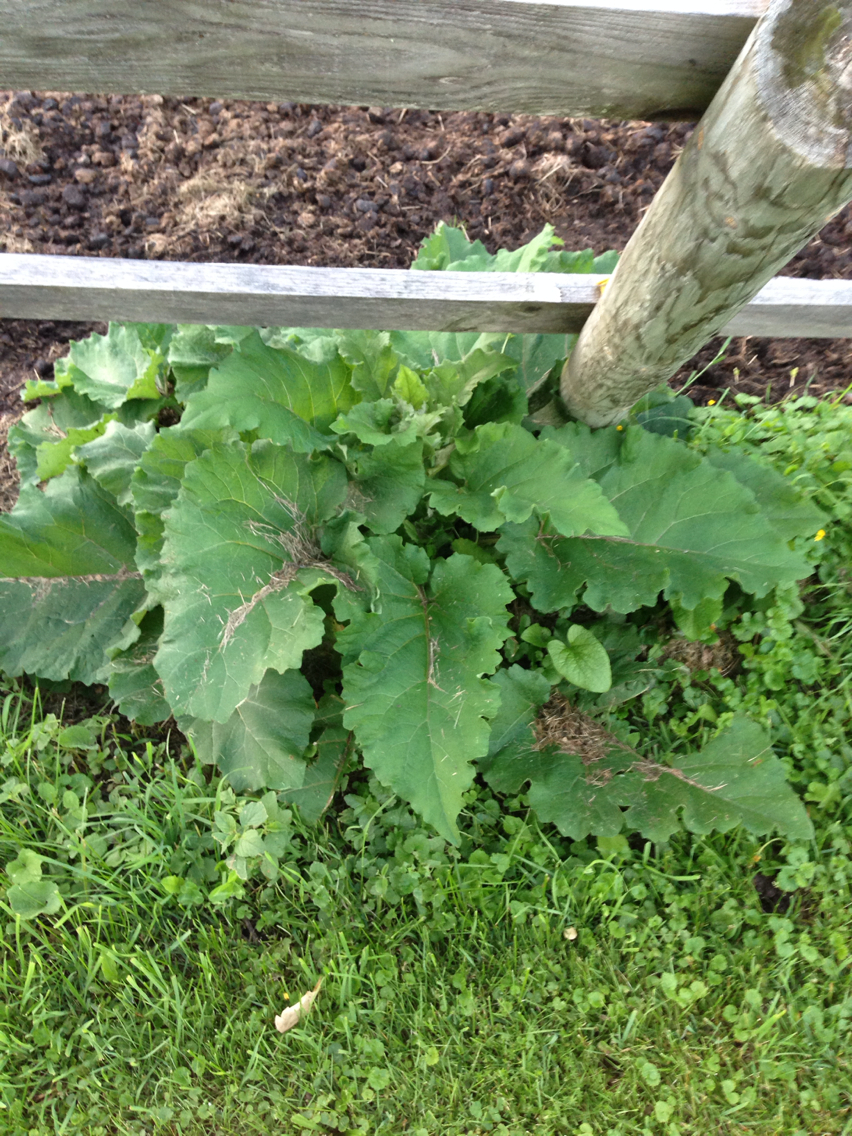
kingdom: Plantae
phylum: Tracheophyta
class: Magnoliopsida
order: Asterales
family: Asteraceae
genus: Arctium
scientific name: Arctium lappa
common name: Greater burdock
